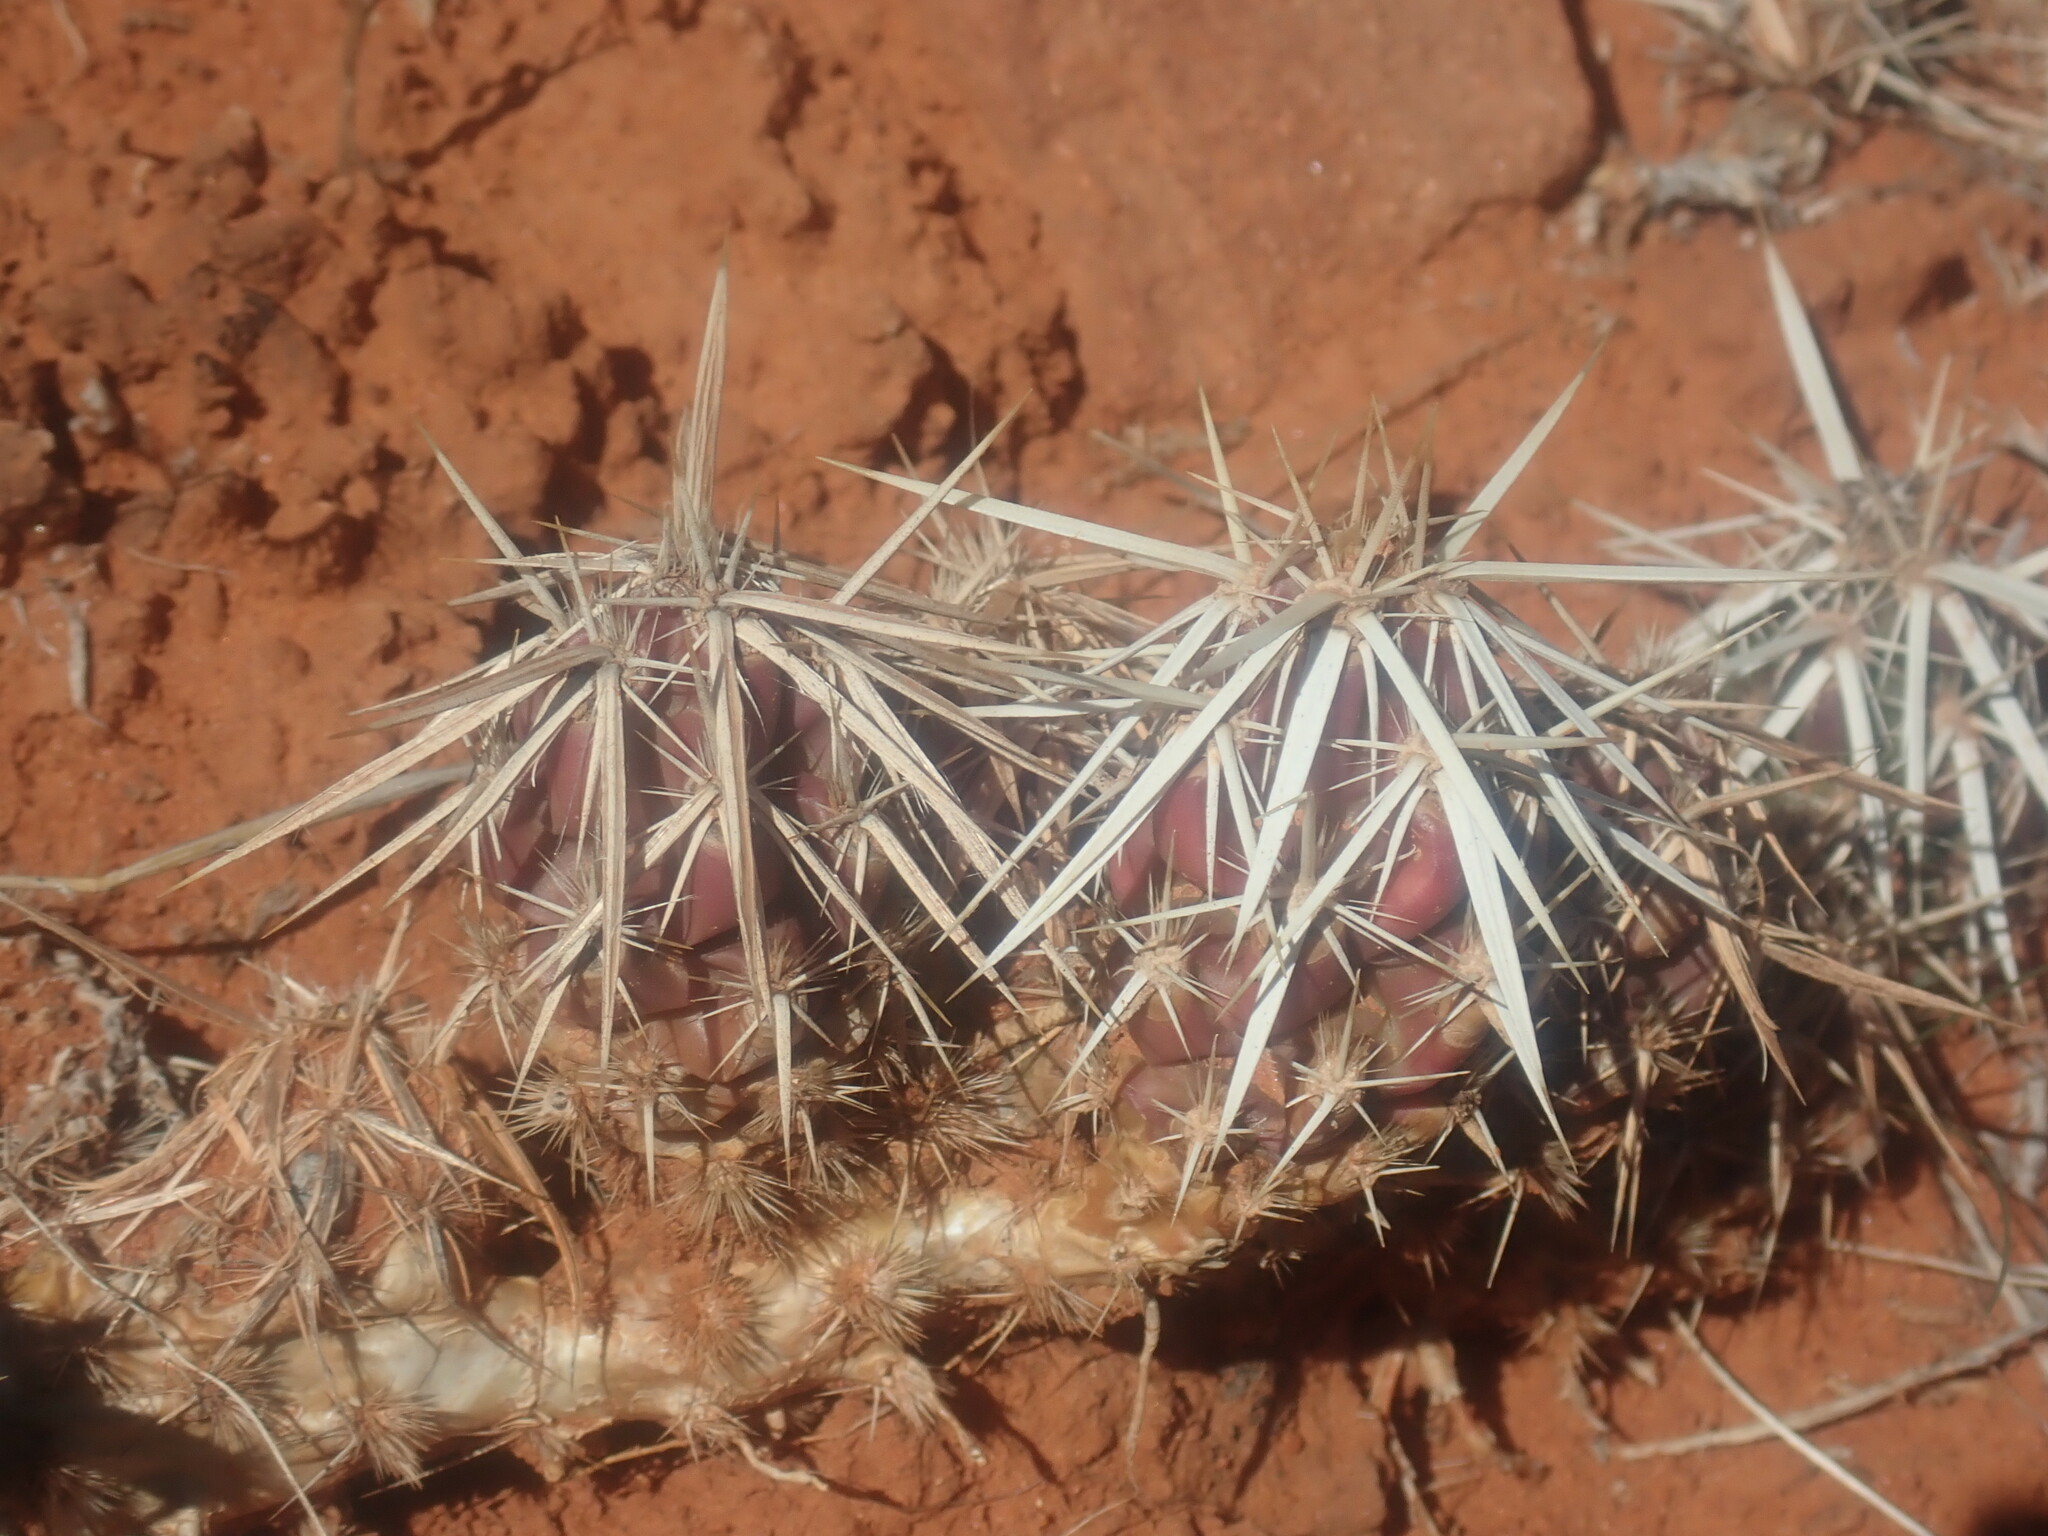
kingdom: Plantae
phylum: Tracheophyta
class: Magnoliopsida
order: Caryophyllales
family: Cactaceae
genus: Grusonia
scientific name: Grusonia clavata
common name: Club cholla
